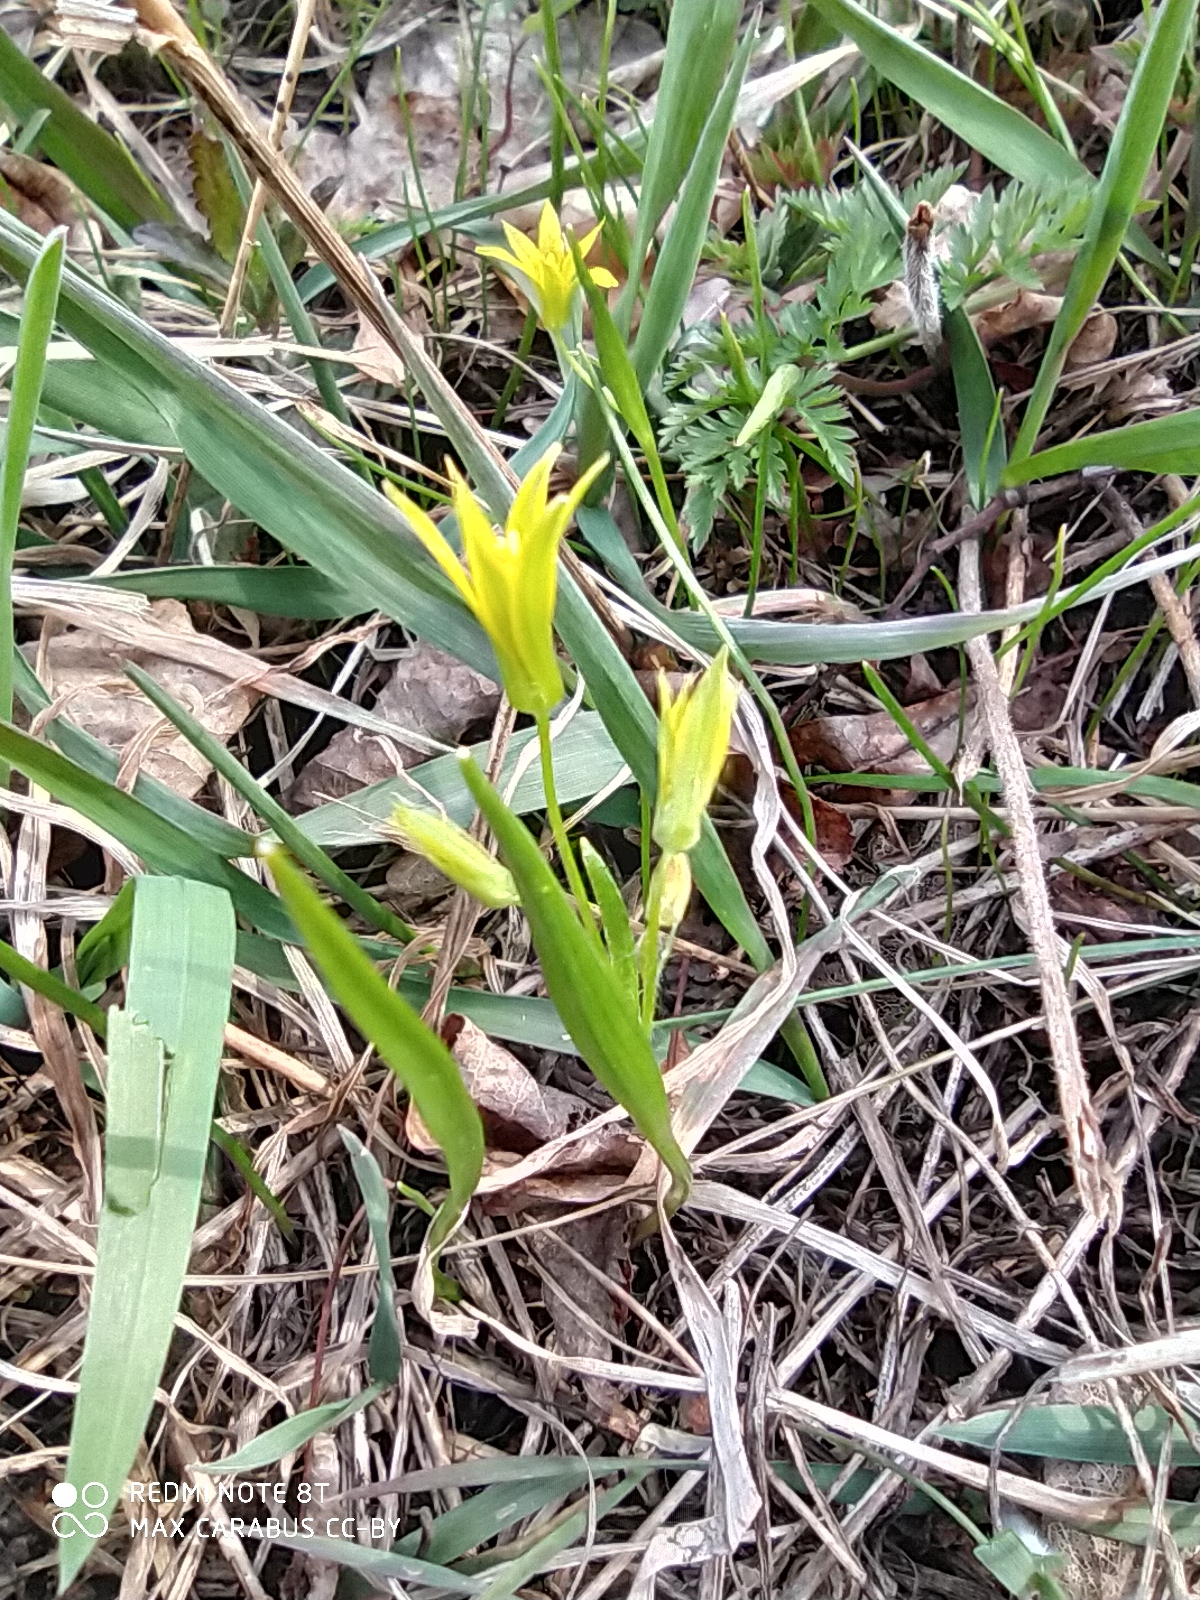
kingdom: Plantae
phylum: Tracheophyta
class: Liliopsida
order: Liliales
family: Liliaceae
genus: Gagea
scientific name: Gagea minima
